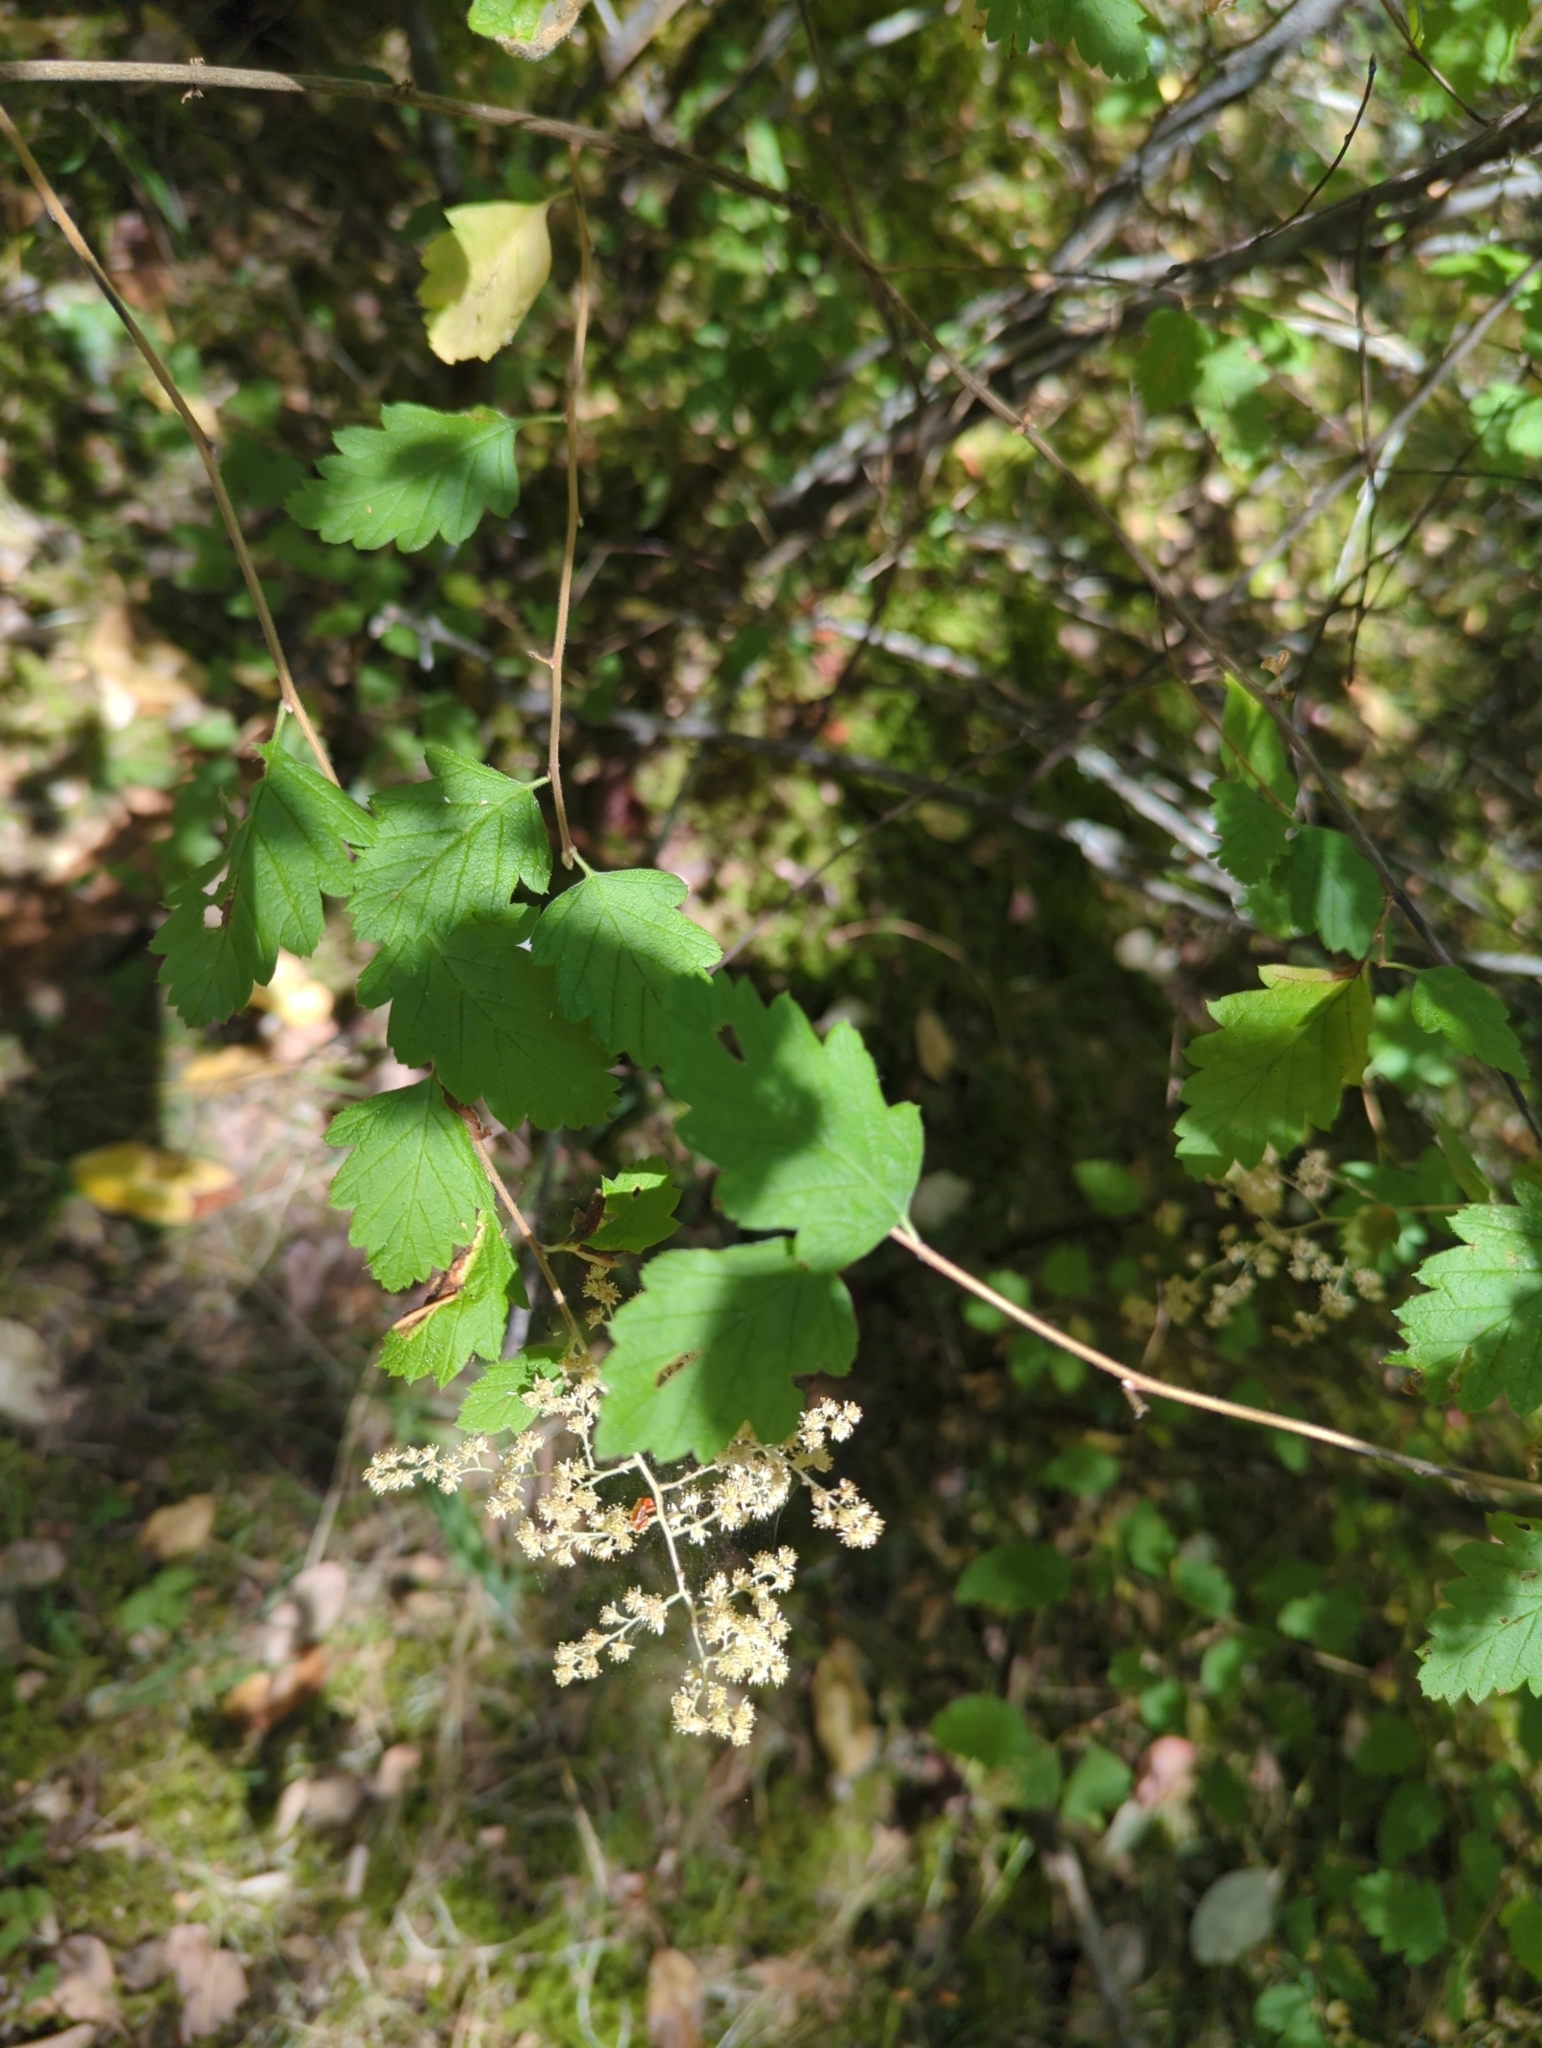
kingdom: Plantae
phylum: Tracheophyta
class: Magnoliopsida
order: Rosales
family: Rosaceae
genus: Holodiscus
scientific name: Holodiscus discolor
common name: Oceanspray
